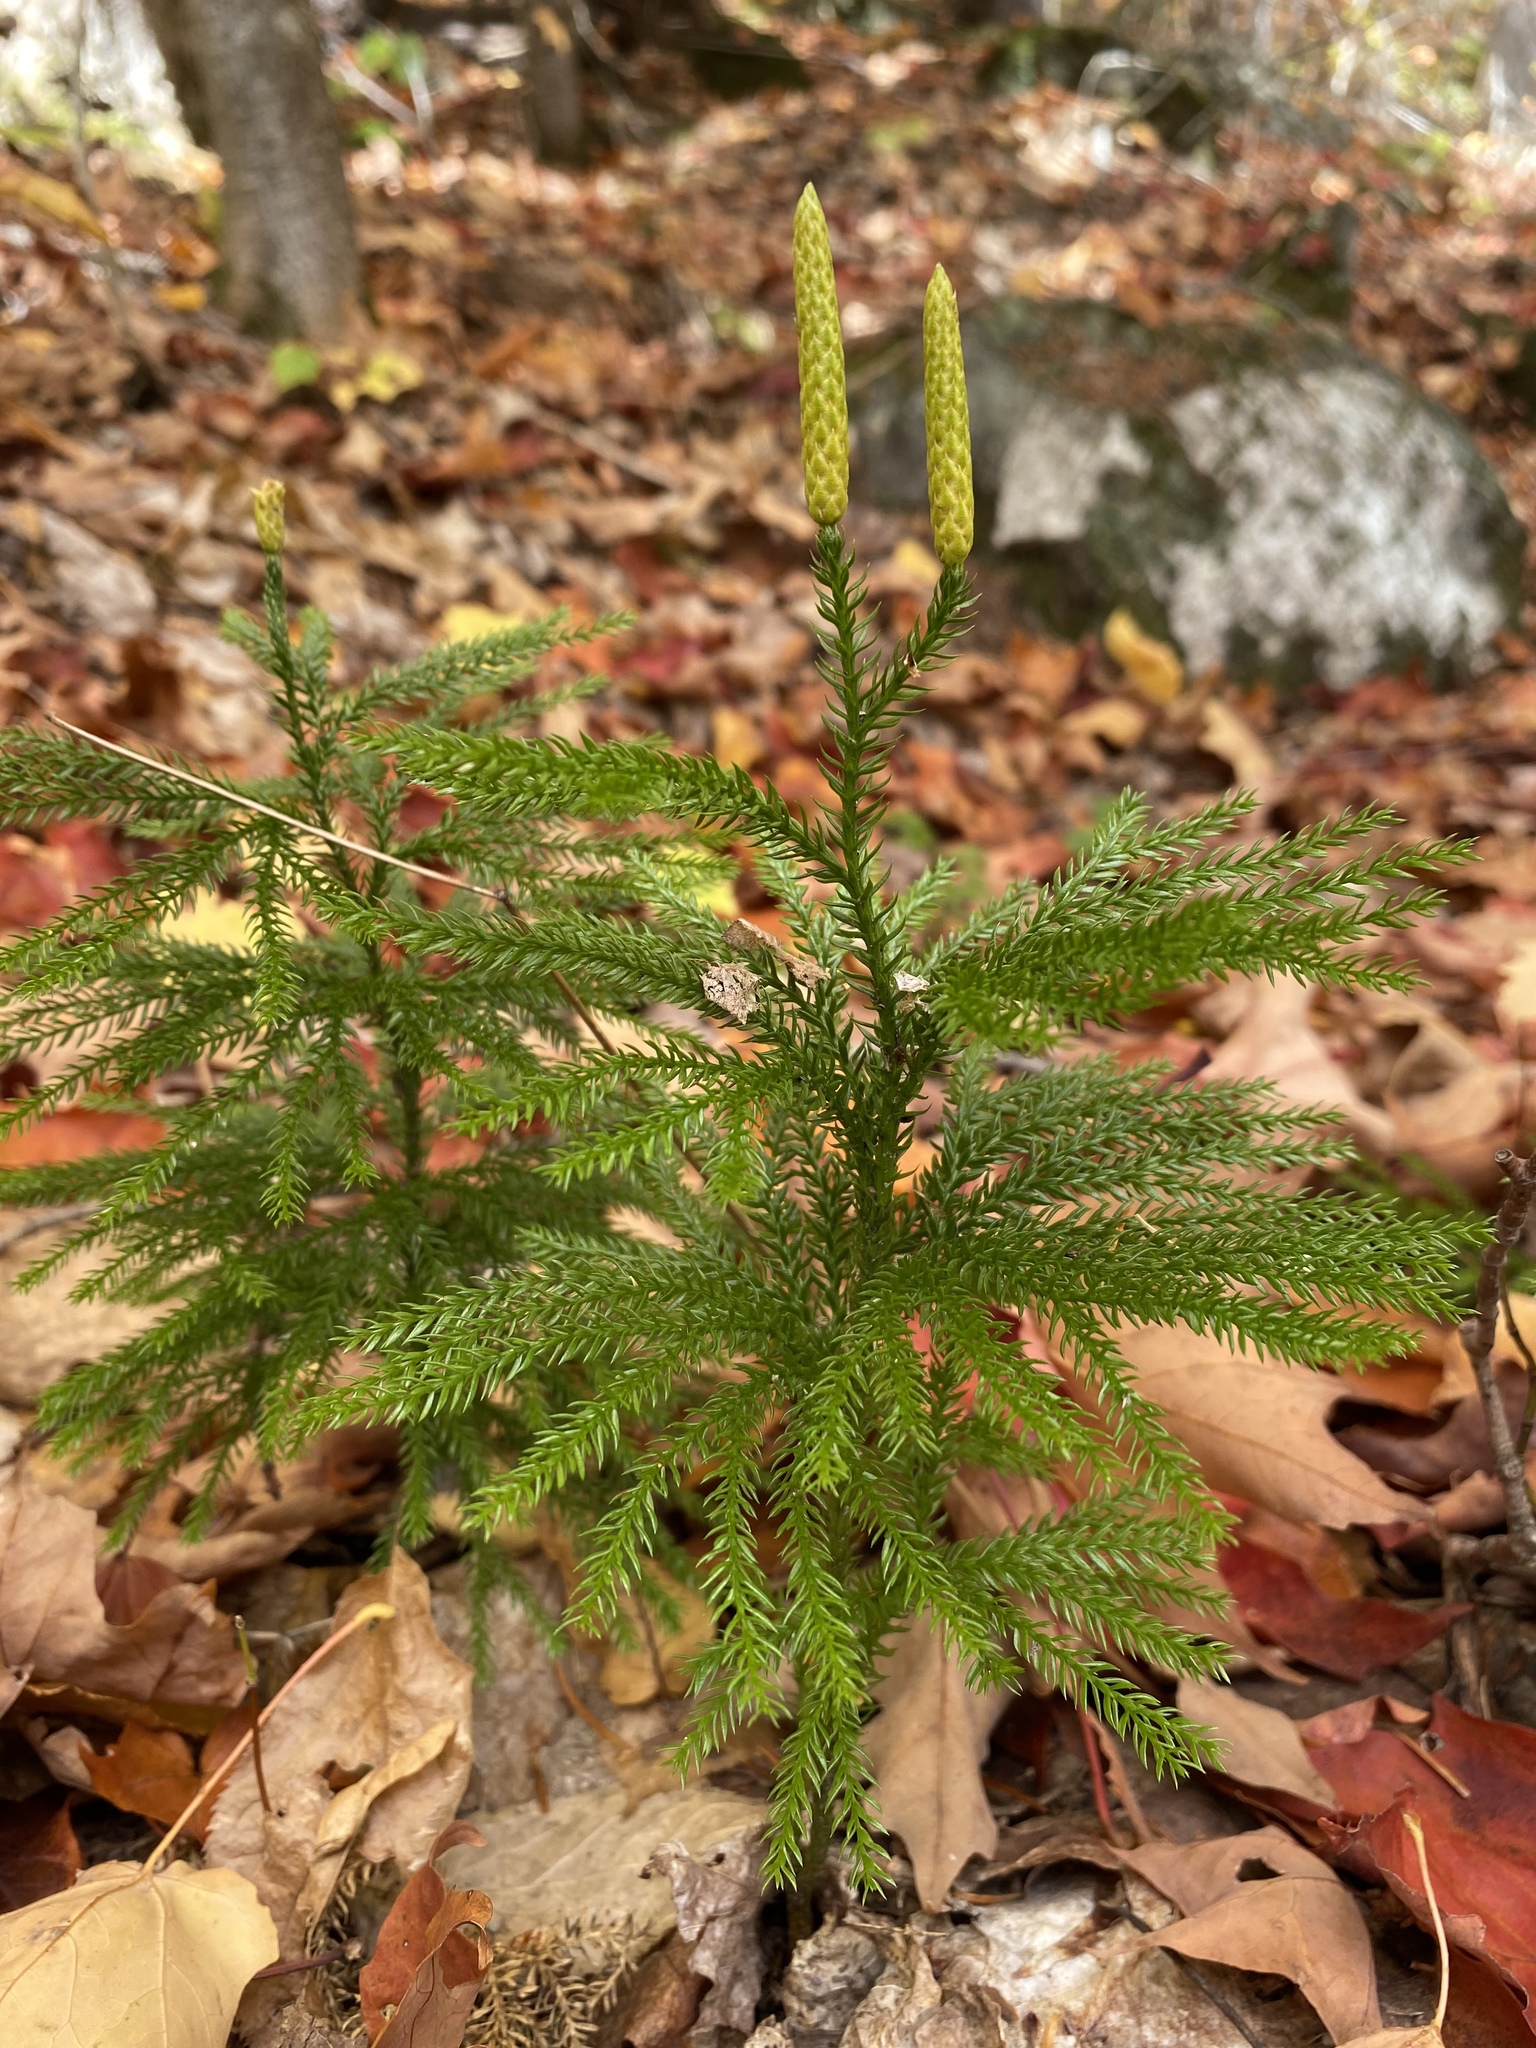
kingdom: Plantae
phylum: Tracheophyta
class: Lycopodiopsida
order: Lycopodiales
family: Lycopodiaceae
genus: Dendrolycopodium
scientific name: Dendrolycopodium dendroideum
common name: Northern tree-clubmoss
